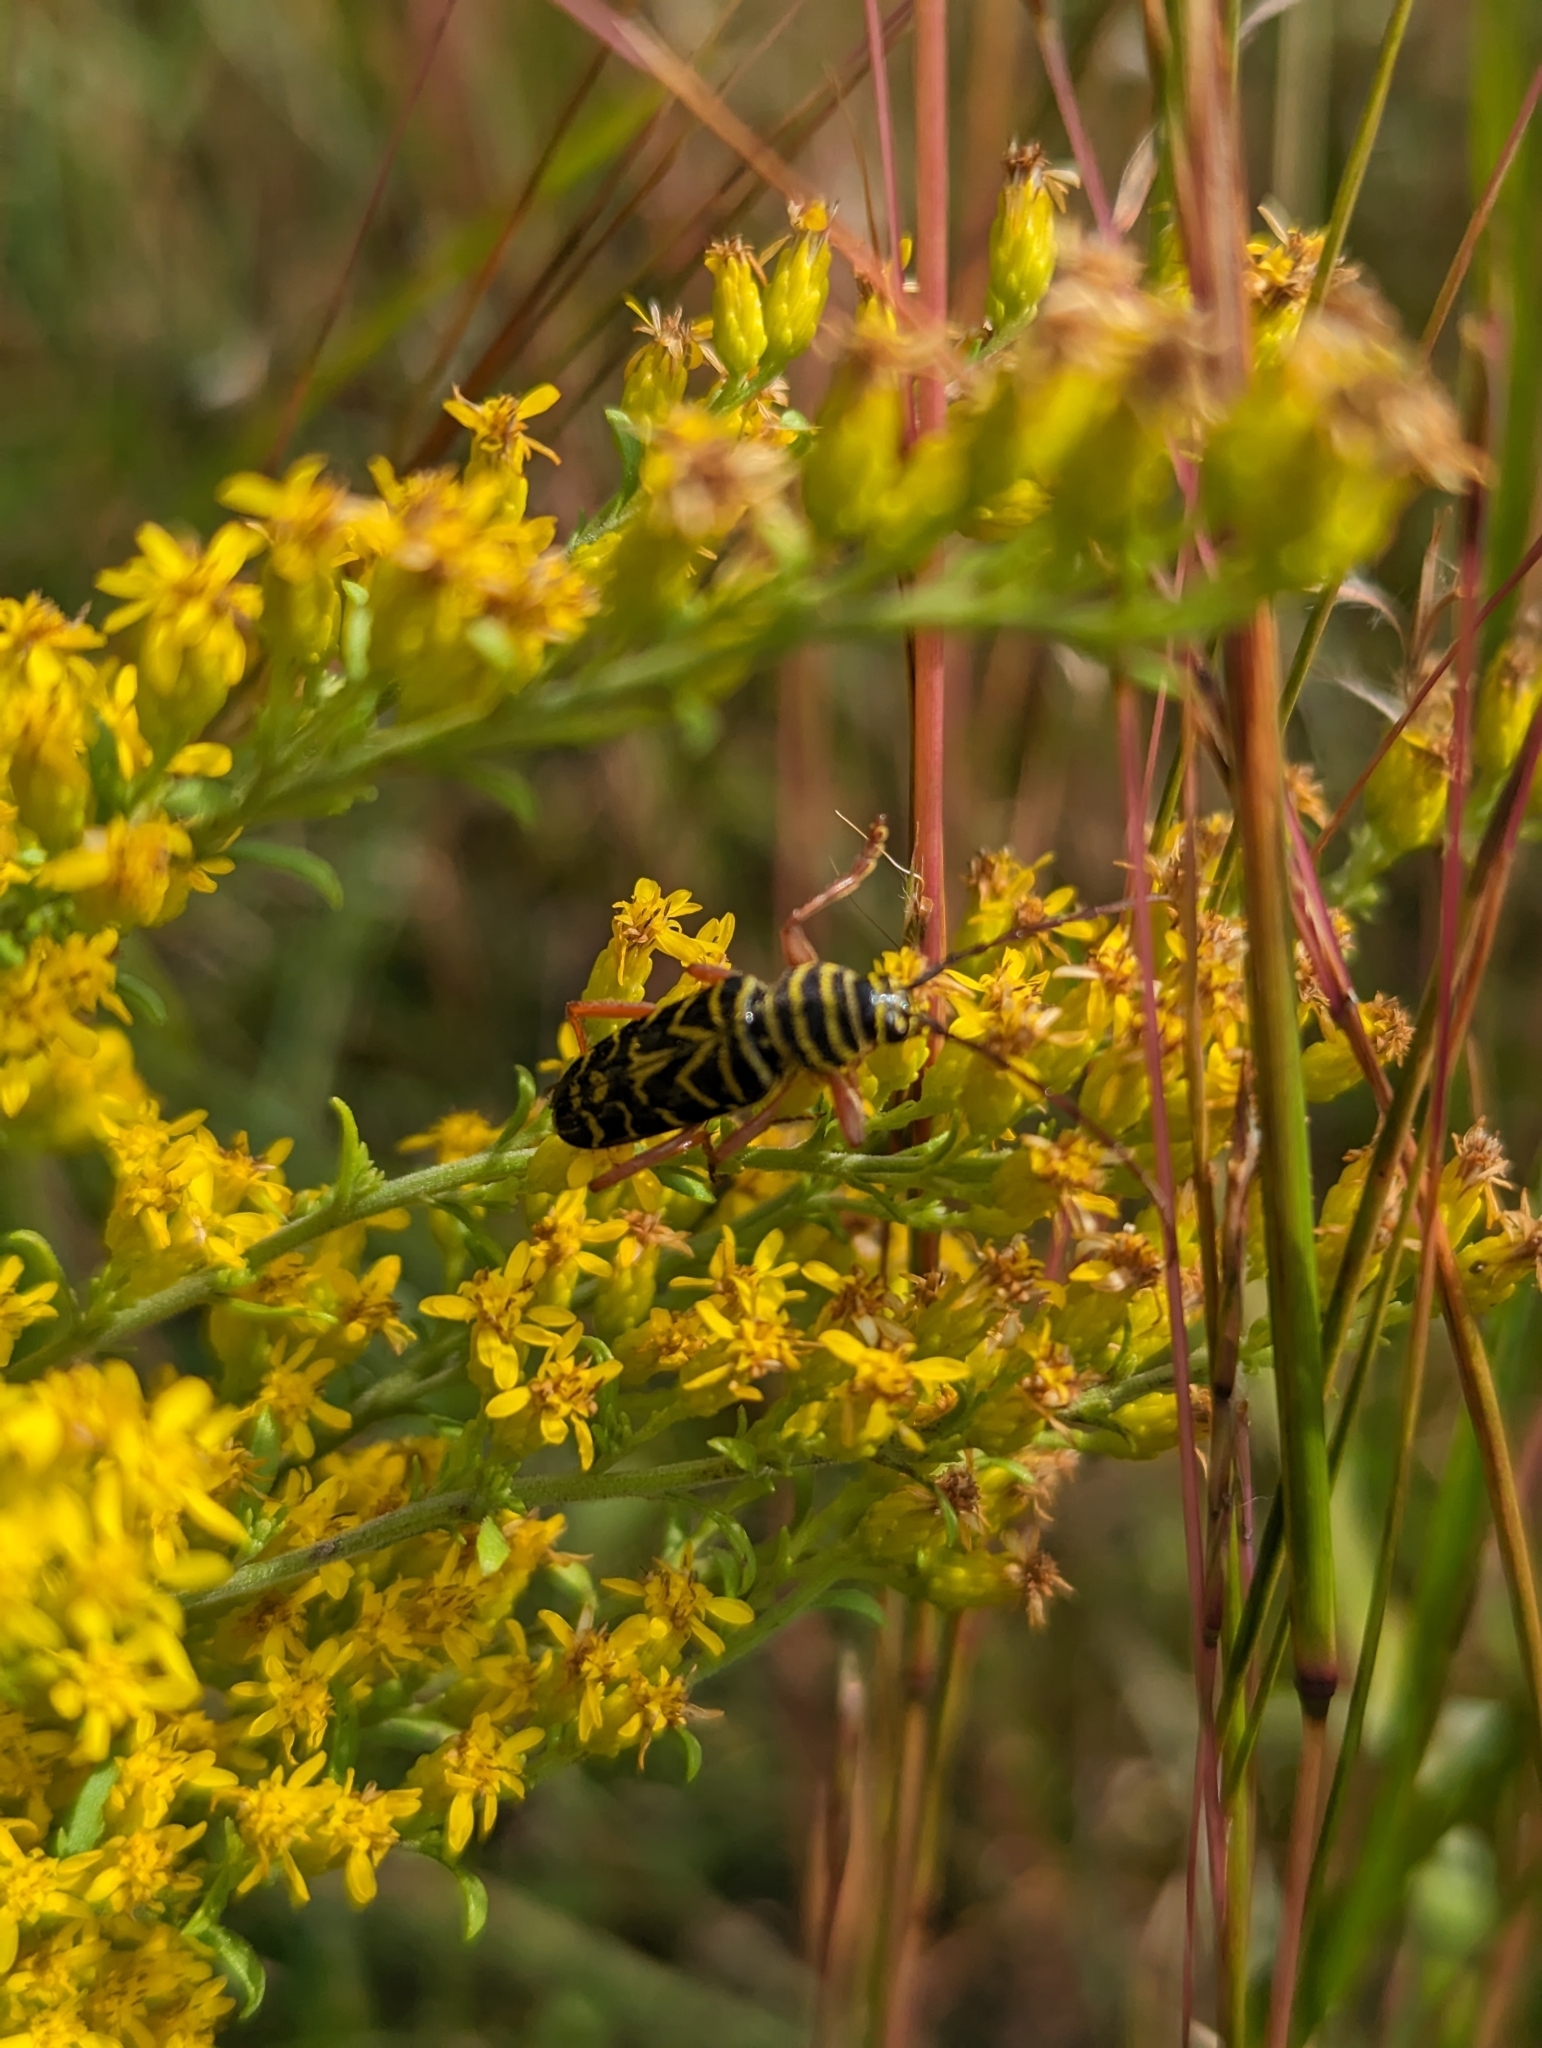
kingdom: Animalia
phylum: Arthropoda
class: Insecta
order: Coleoptera
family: Cerambycidae
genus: Megacyllene
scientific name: Megacyllene robiniae
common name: Locust borer
